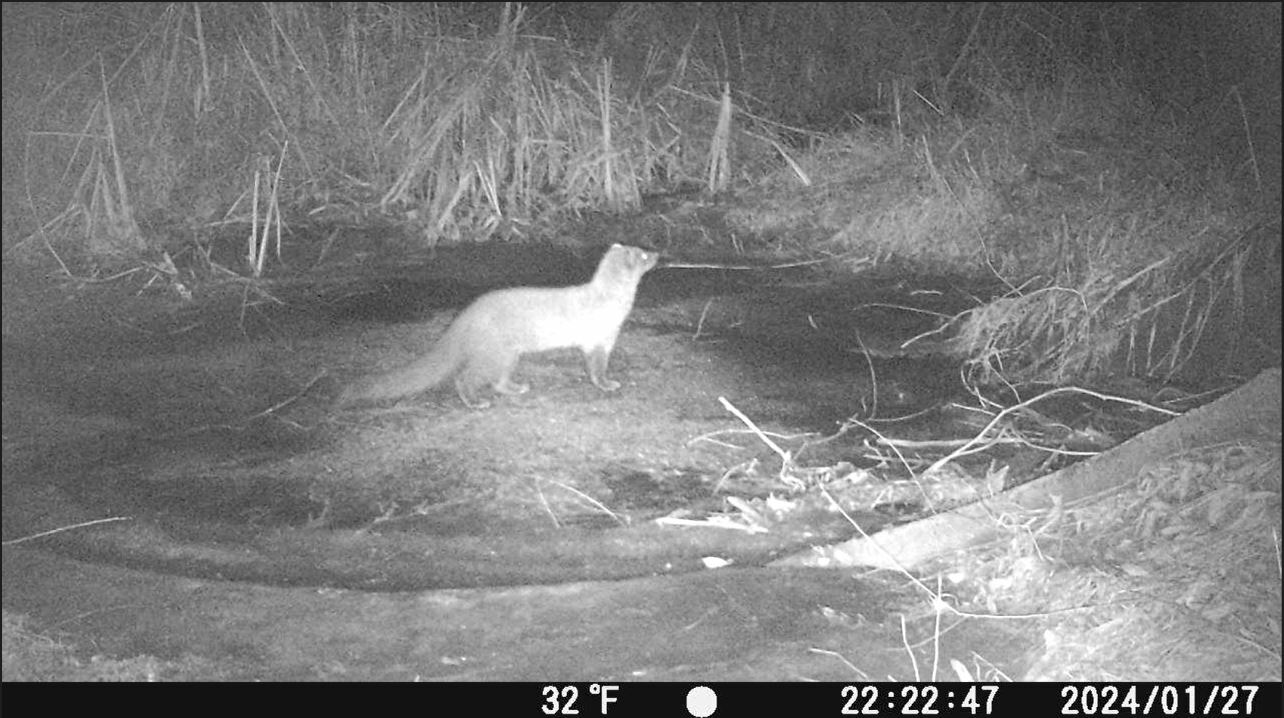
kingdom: Animalia
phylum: Chordata
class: Mammalia
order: Carnivora
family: Mustelidae
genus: Pekania
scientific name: Pekania pennanti
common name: Fisher
